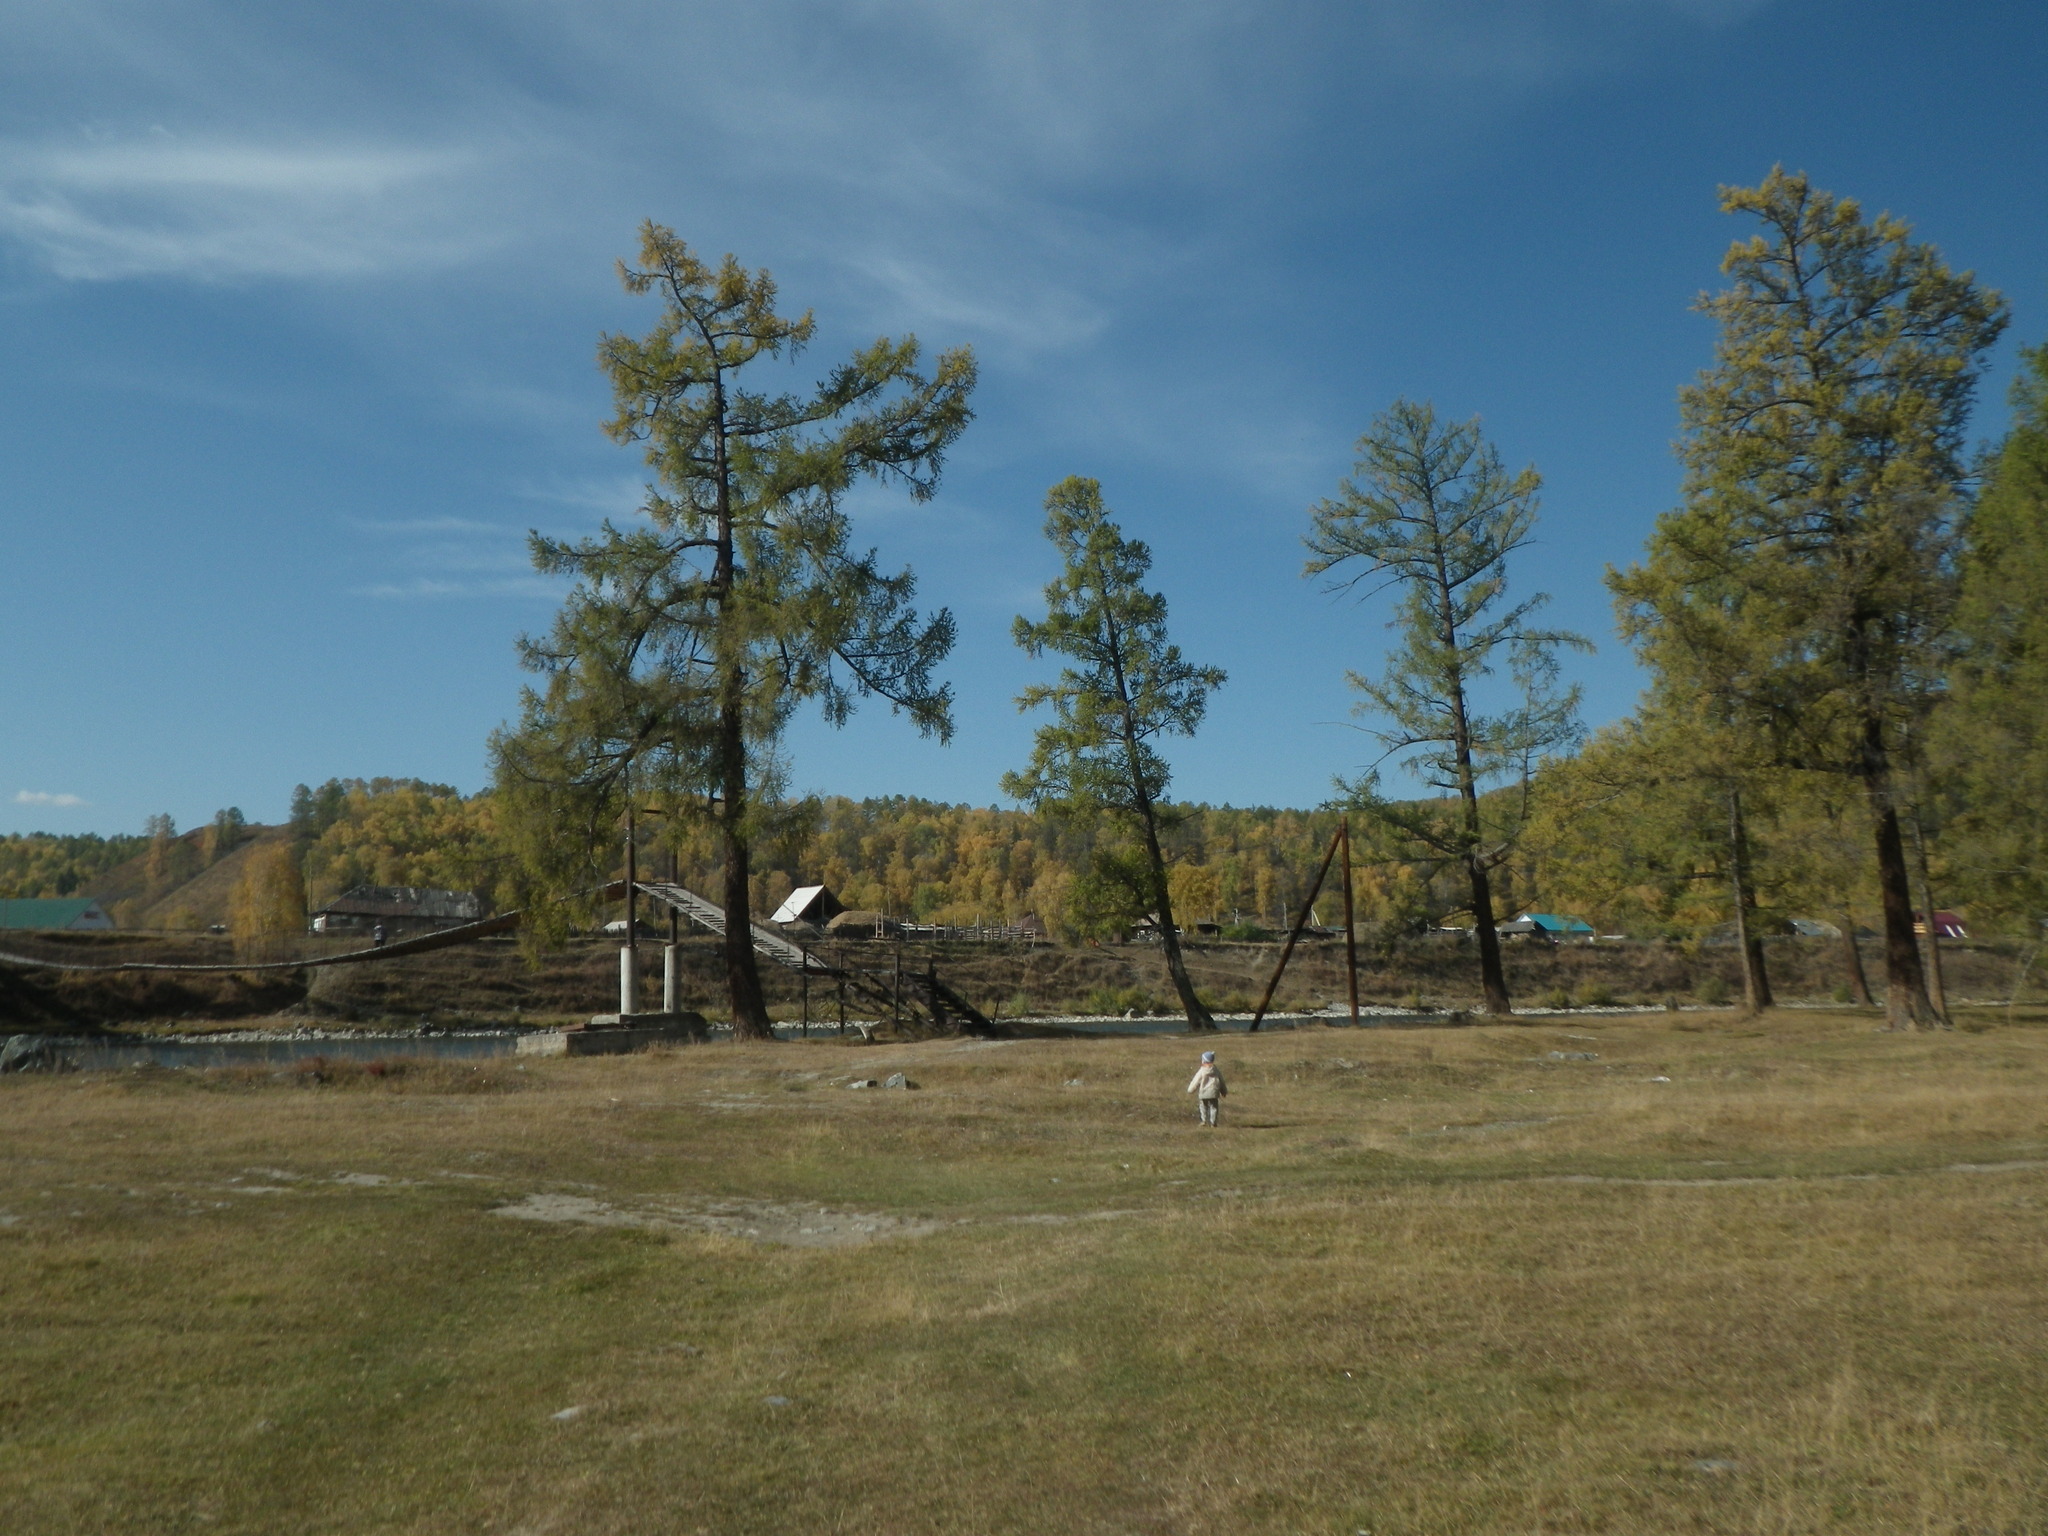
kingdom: Plantae
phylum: Tracheophyta
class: Pinopsida
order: Pinales
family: Pinaceae
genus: Larix
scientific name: Larix sibirica
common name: Siberian larch
